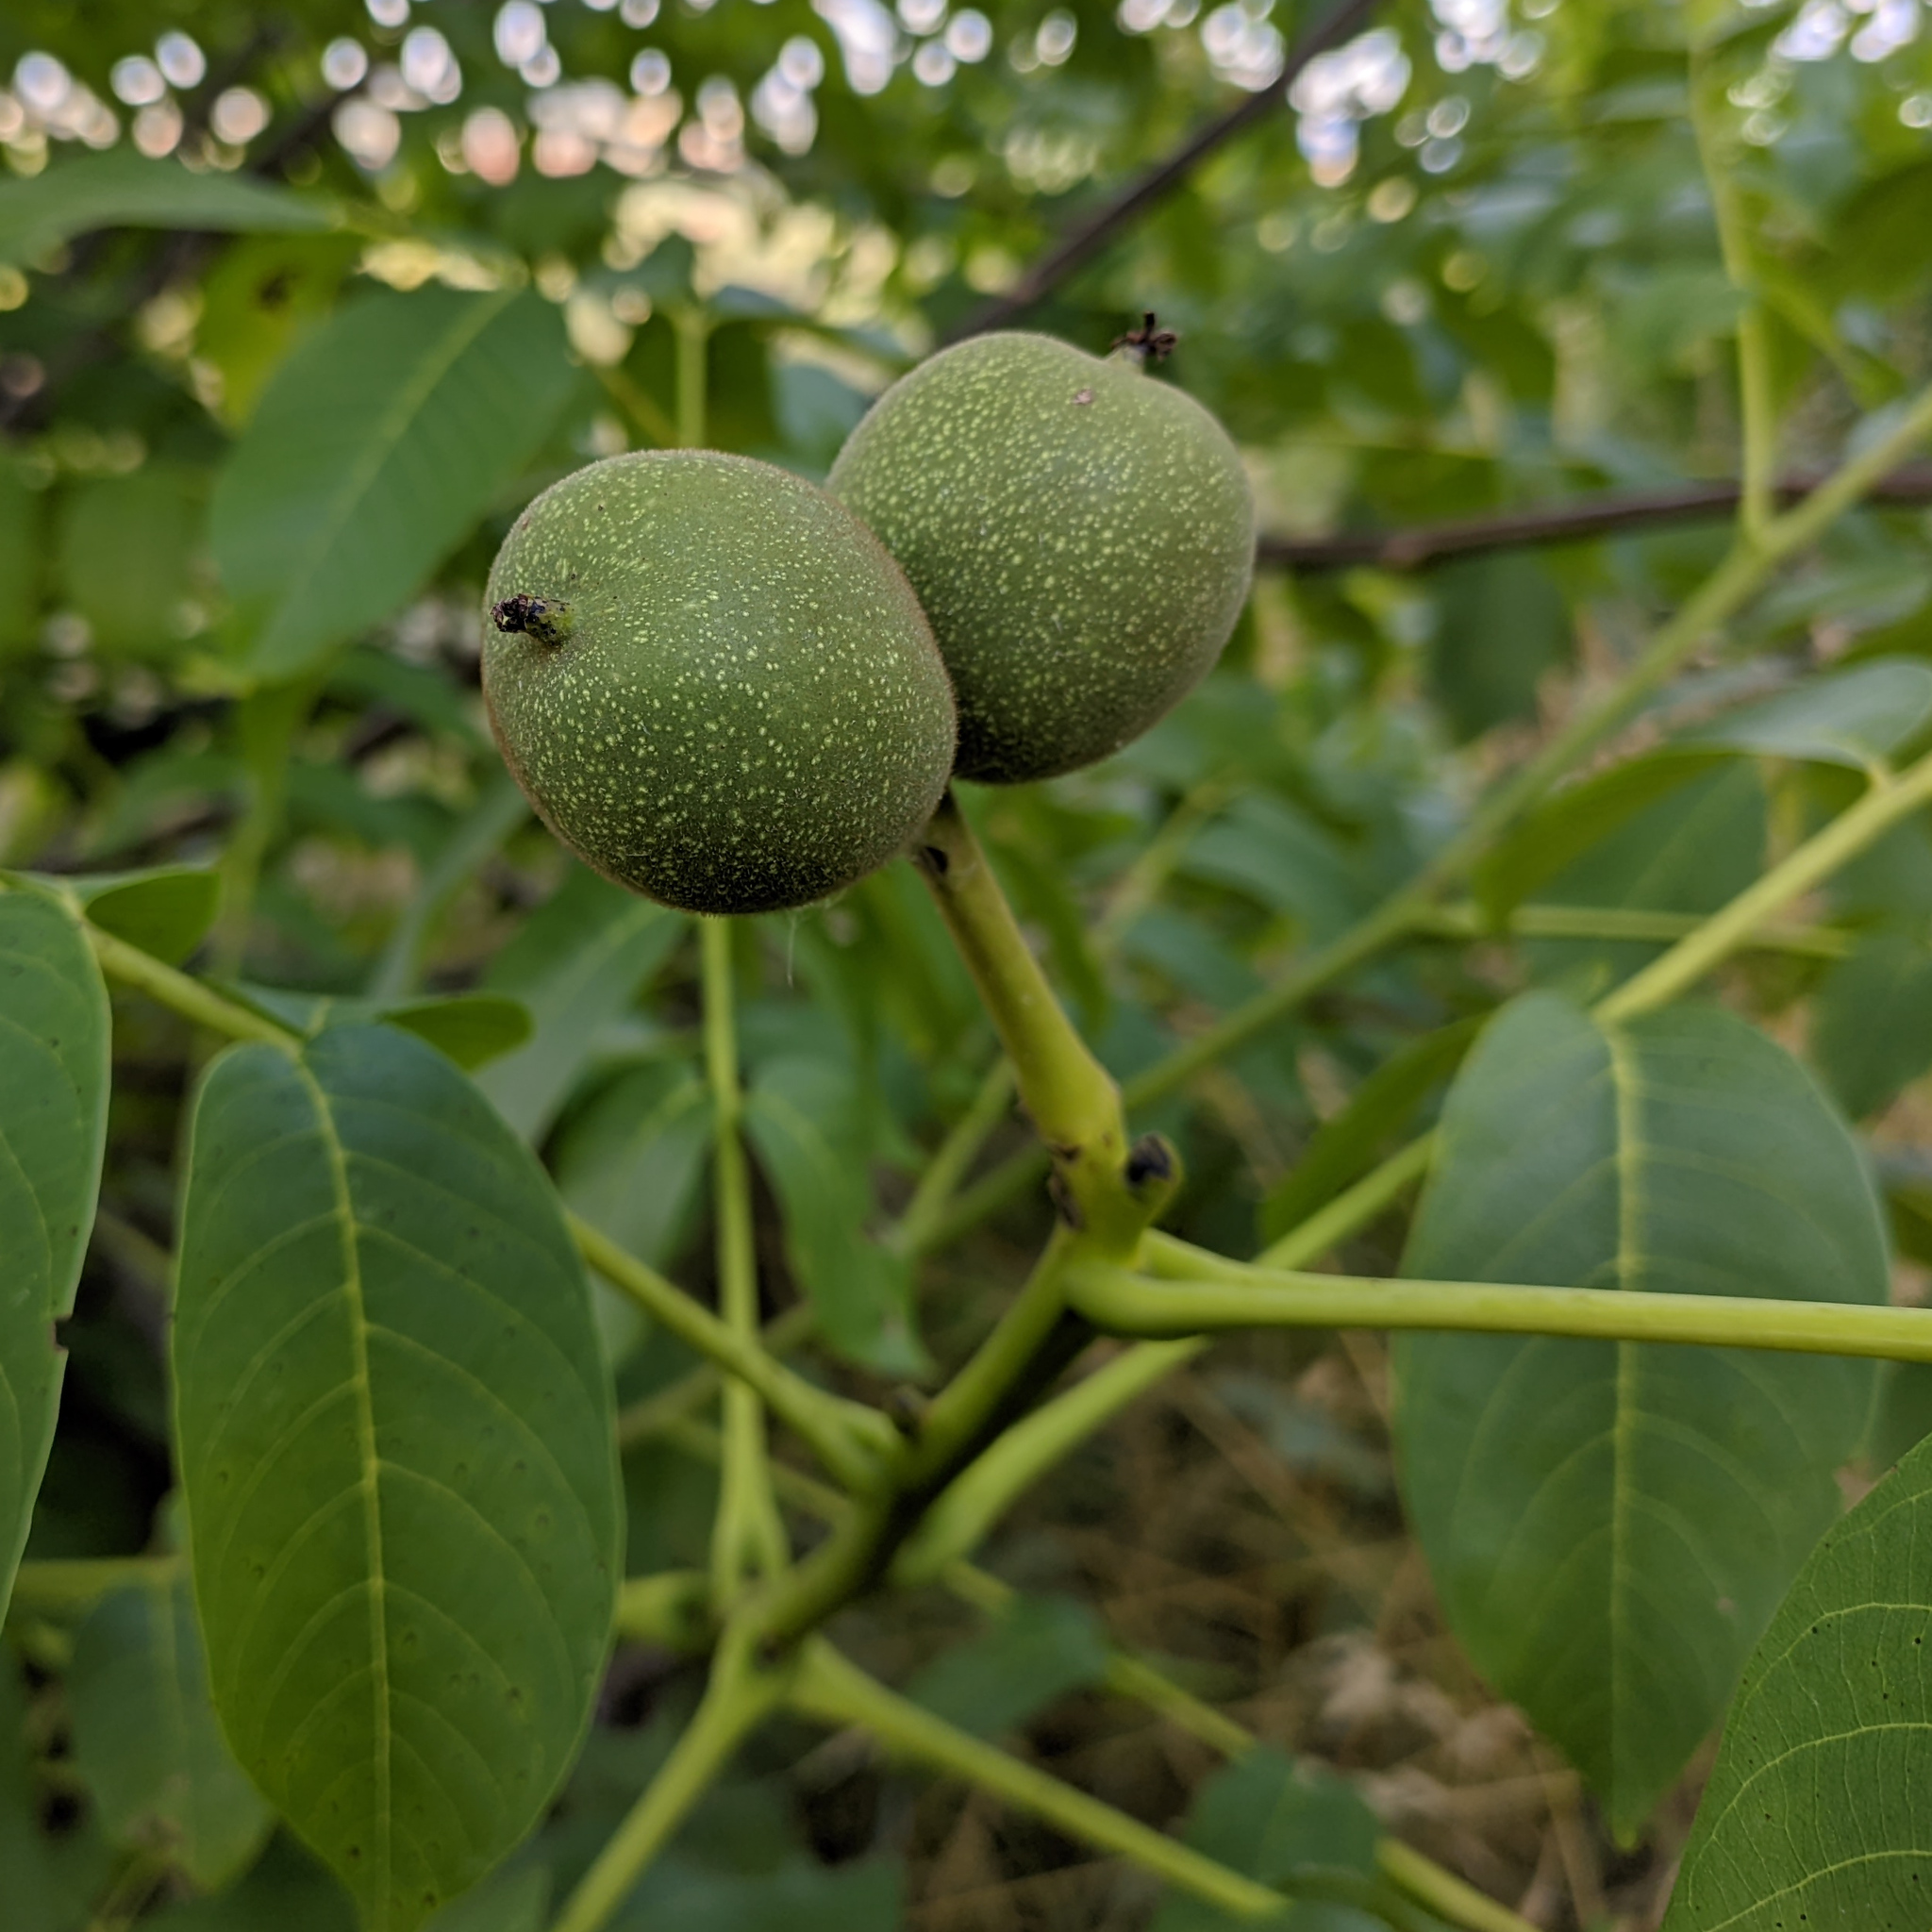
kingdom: Plantae
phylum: Tracheophyta
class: Magnoliopsida
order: Fagales
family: Juglandaceae
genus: Juglans
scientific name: Juglans regia
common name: Walnut
